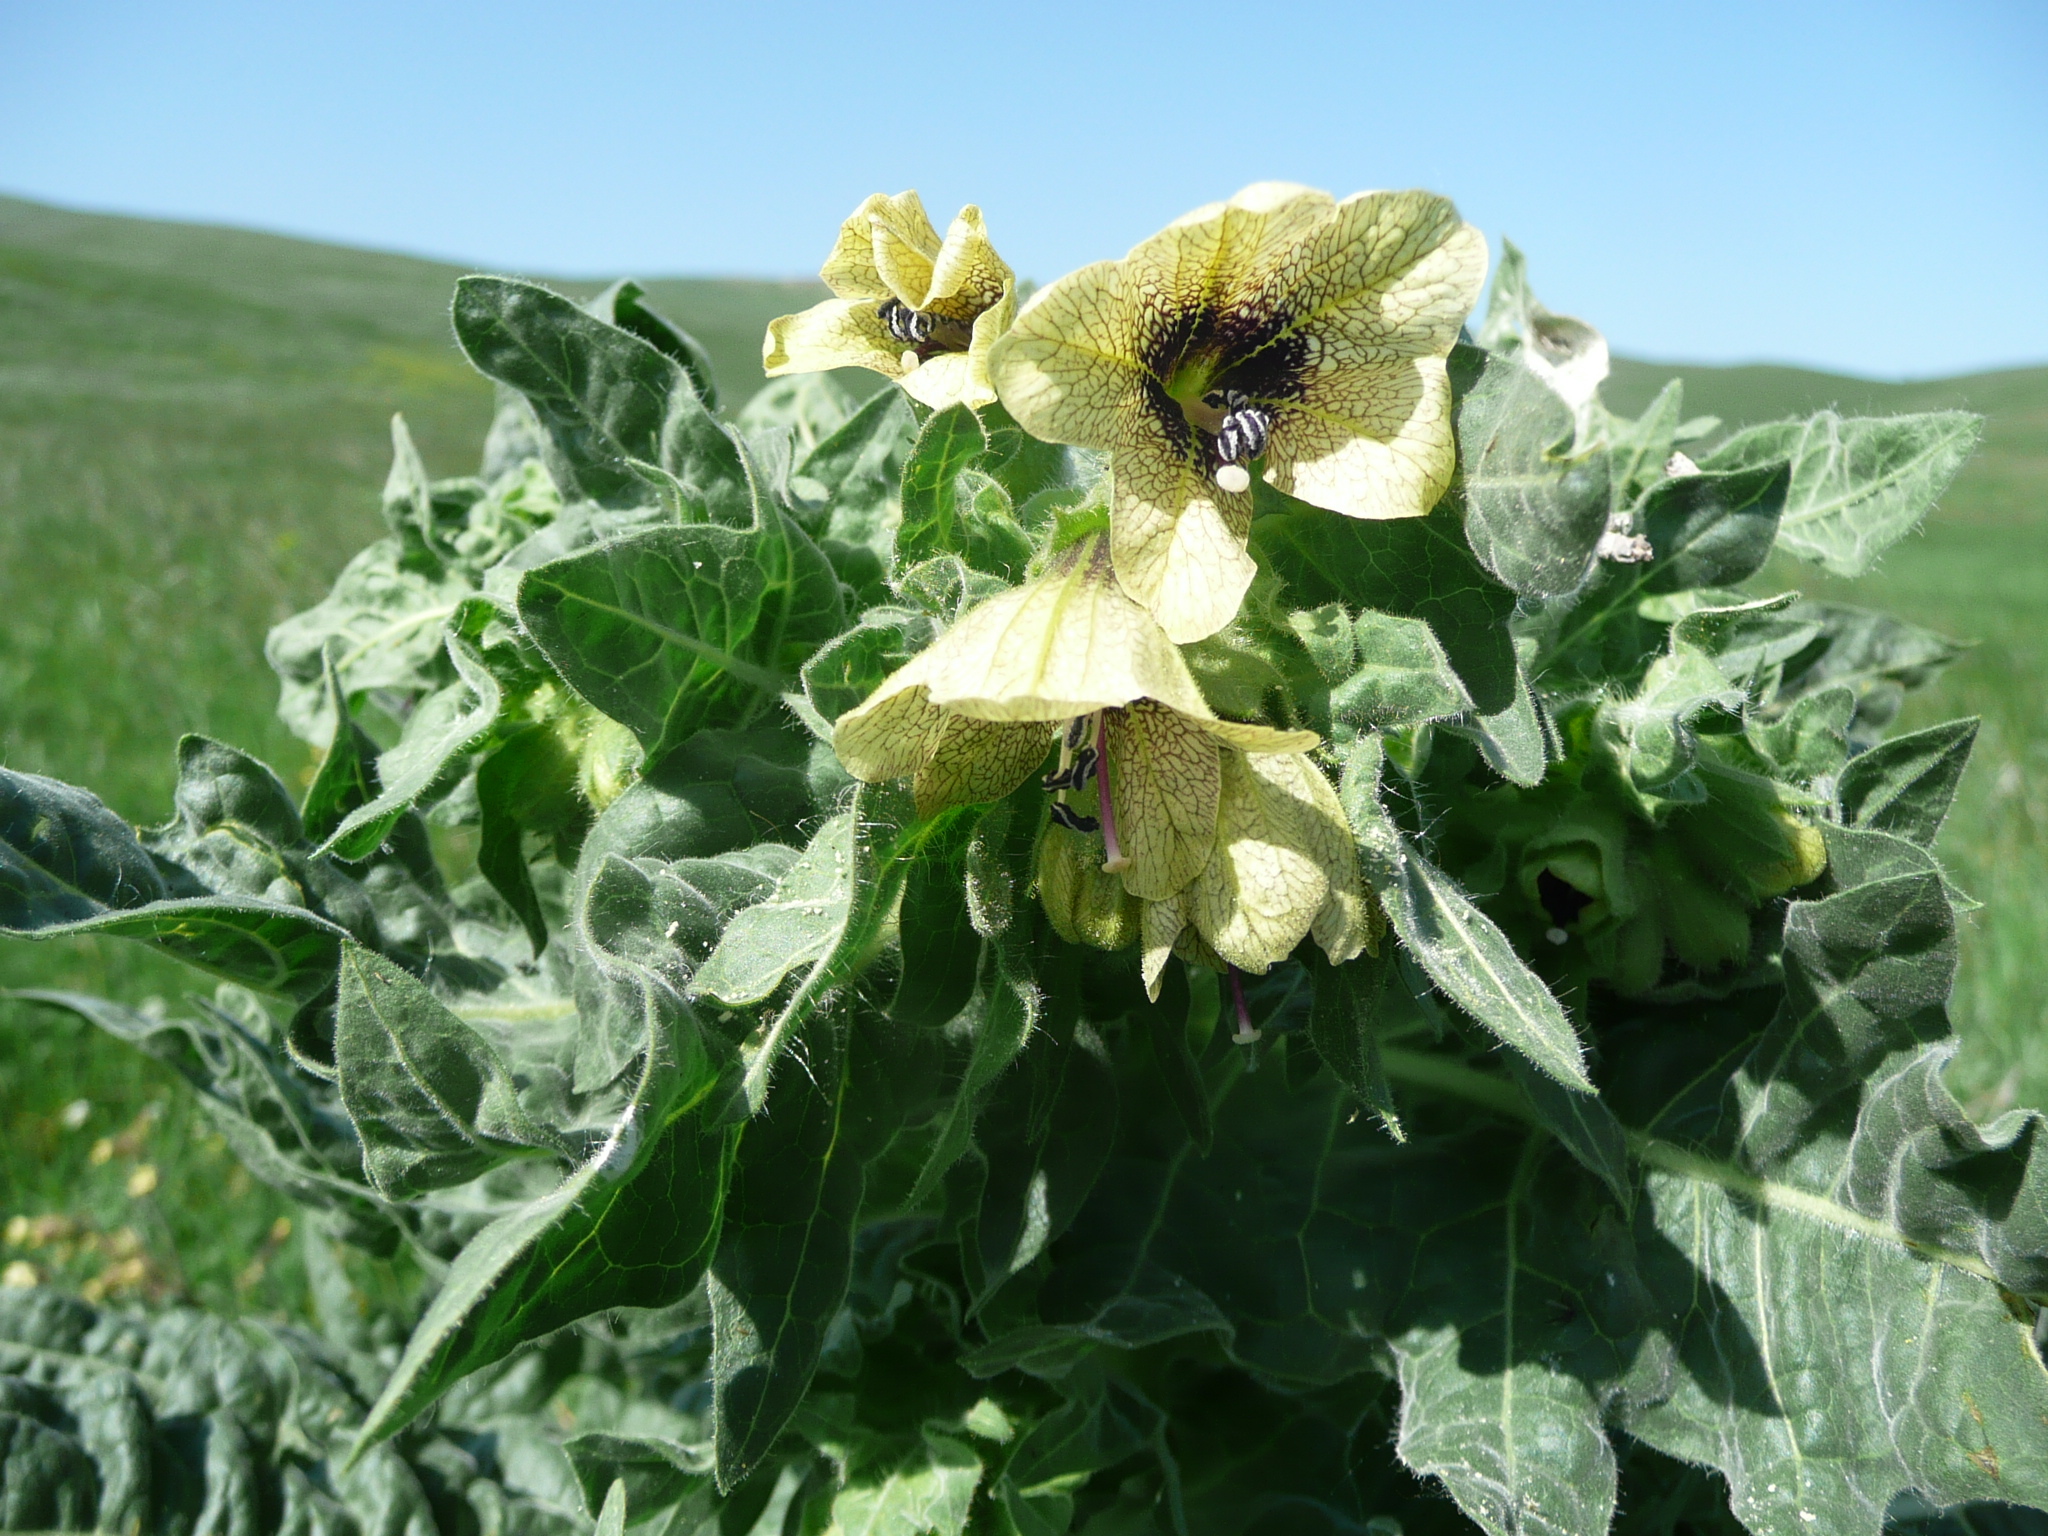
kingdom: Plantae
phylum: Tracheophyta
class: Magnoliopsida
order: Solanales
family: Solanaceae
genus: Hyoscyamus
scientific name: Hyoscyamus niger
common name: Henbane
